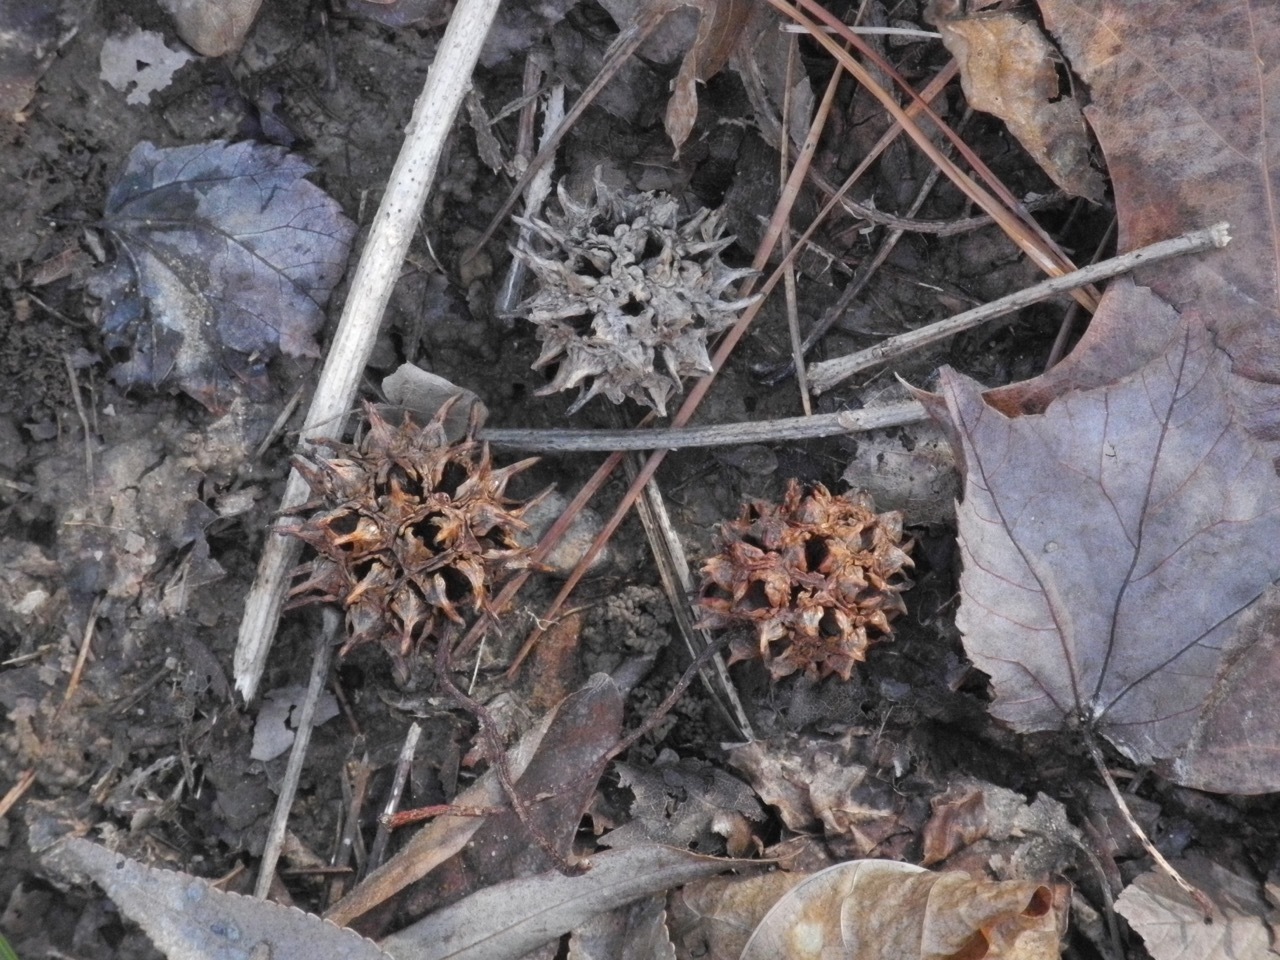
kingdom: Plantae
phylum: Tracheophyta
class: Magnoliopsida
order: Saxifragales
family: Altingiaceae
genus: Liquidambar
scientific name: Liquidambar styraciflua
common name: Sweet gum
